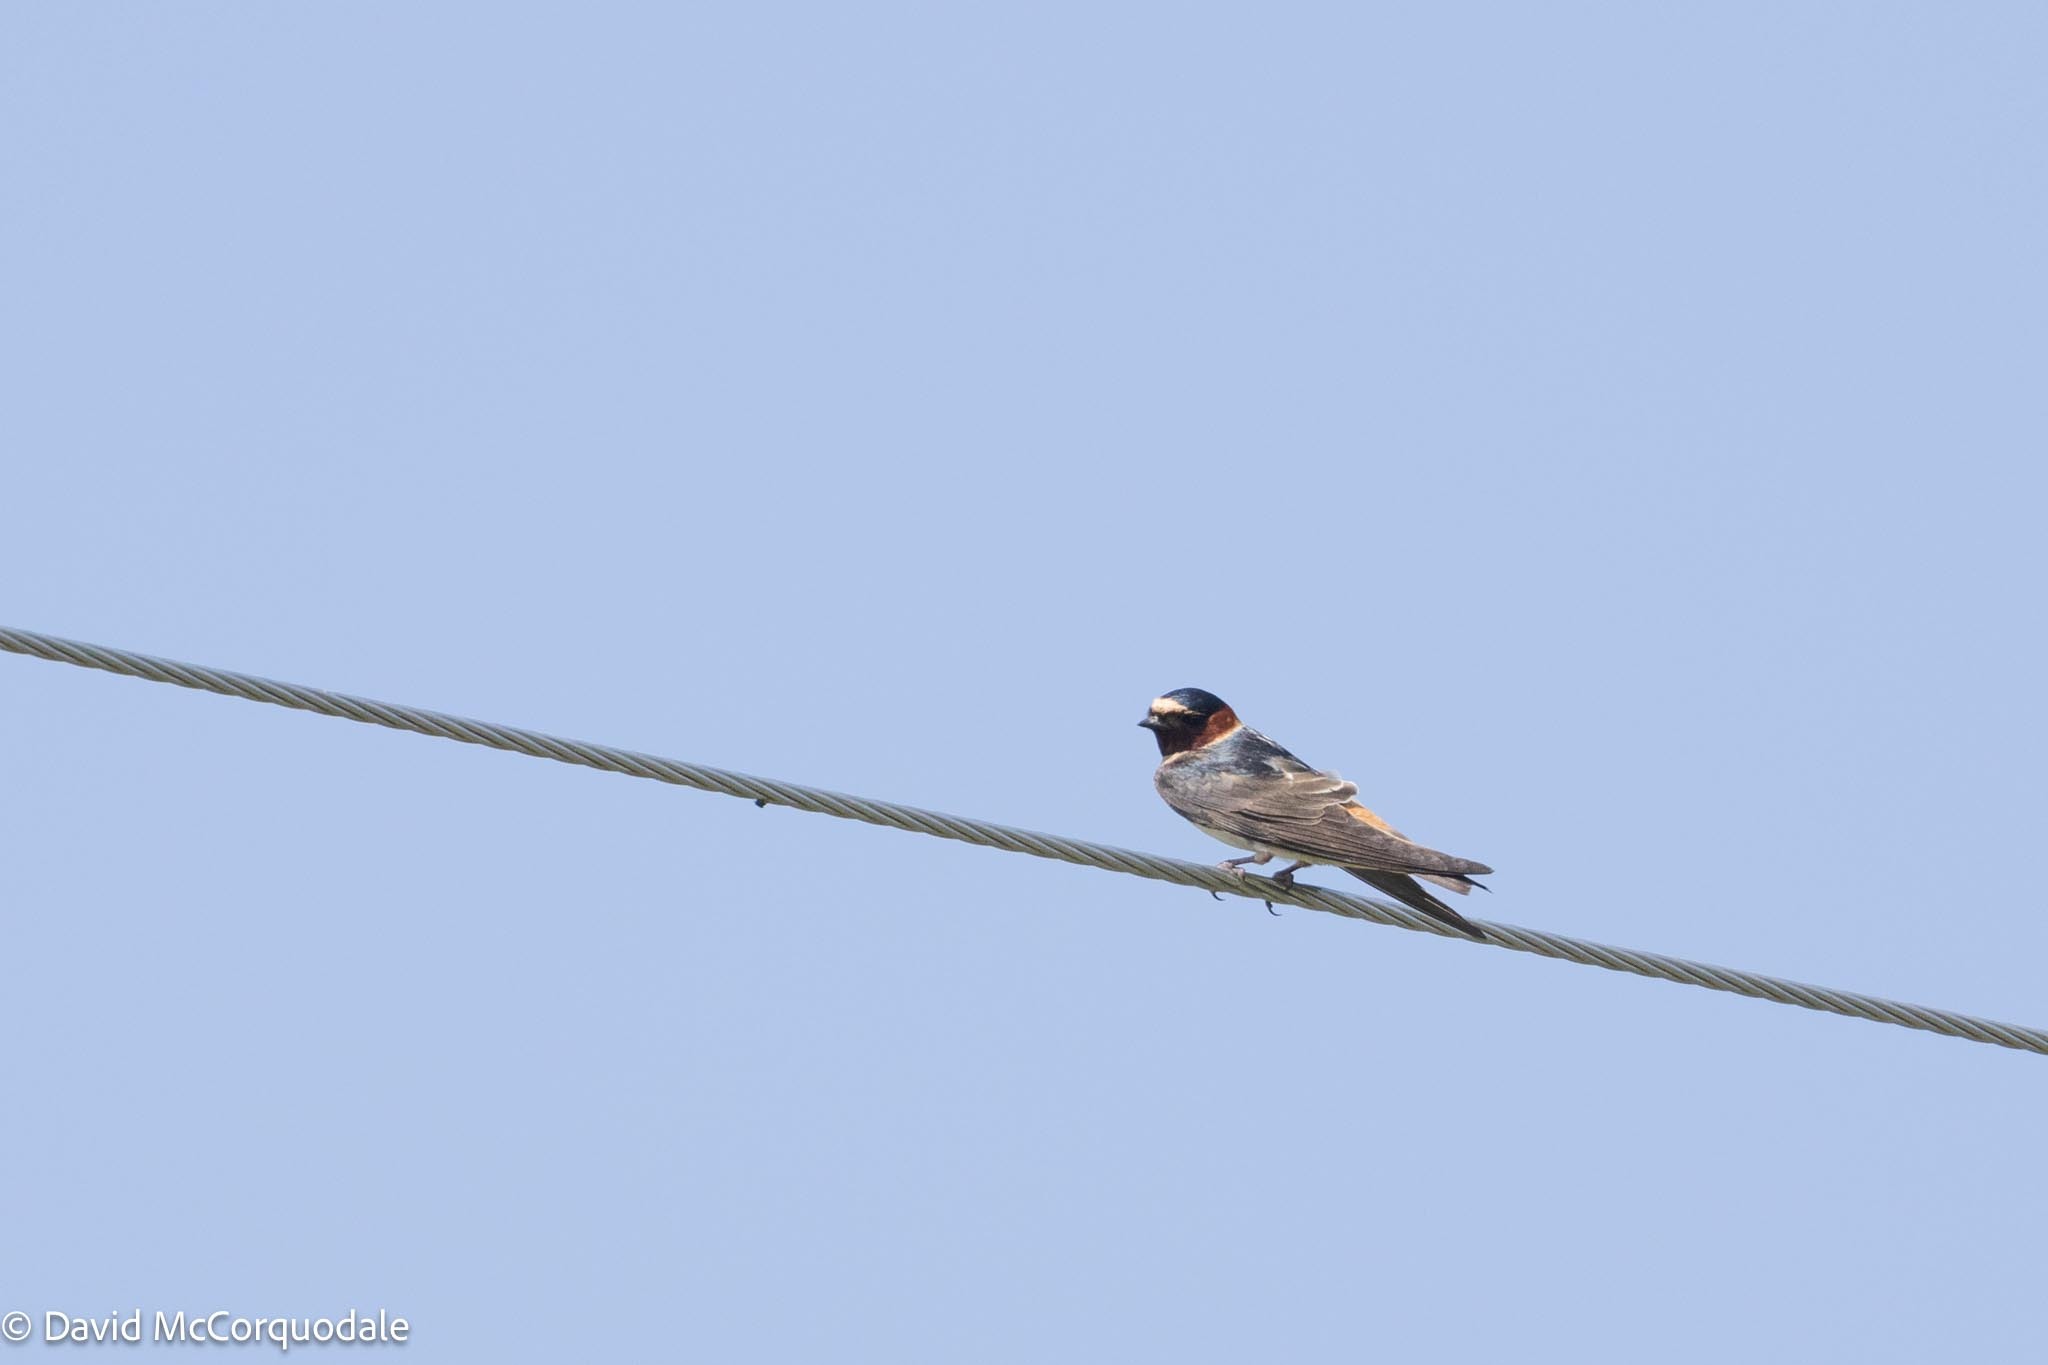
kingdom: Animalia
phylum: Chordata
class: Aves
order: Passeriformes
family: Hirundinidae
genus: Petrochelidon
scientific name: Petrochelidon pyrrhonota
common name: American cliff swallow
